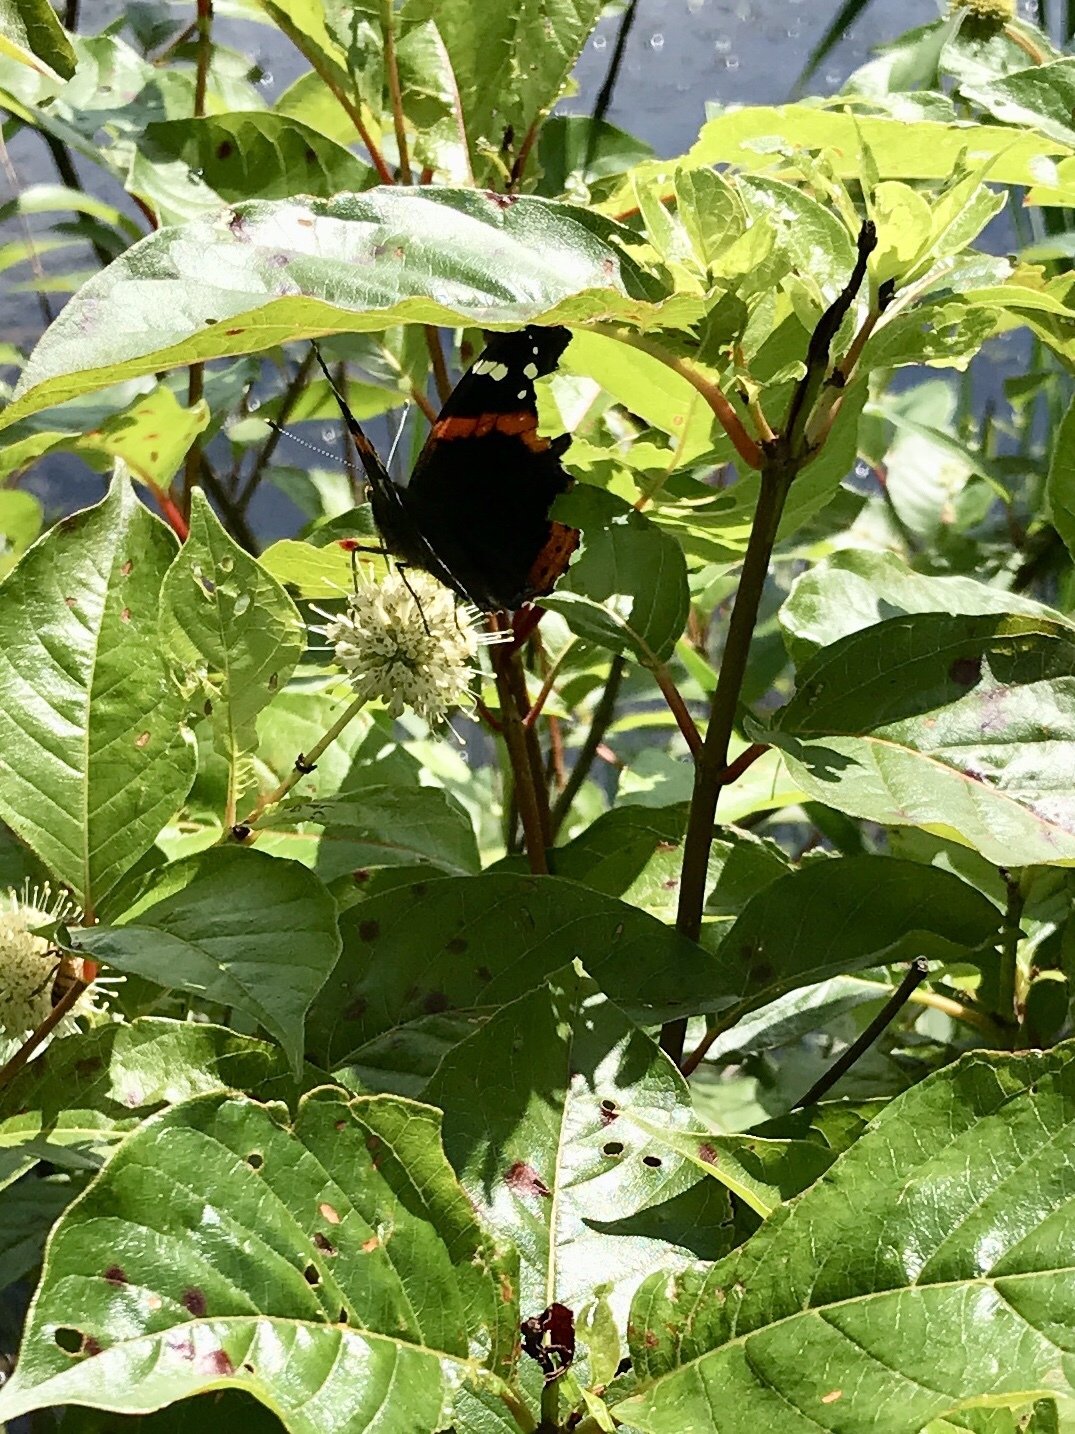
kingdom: Animalia
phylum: Arthropoda
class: Insecta
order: Lepidoptera
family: Nymphalidae
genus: Vanessa
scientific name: Vanessa atalanta
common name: Red admiral
